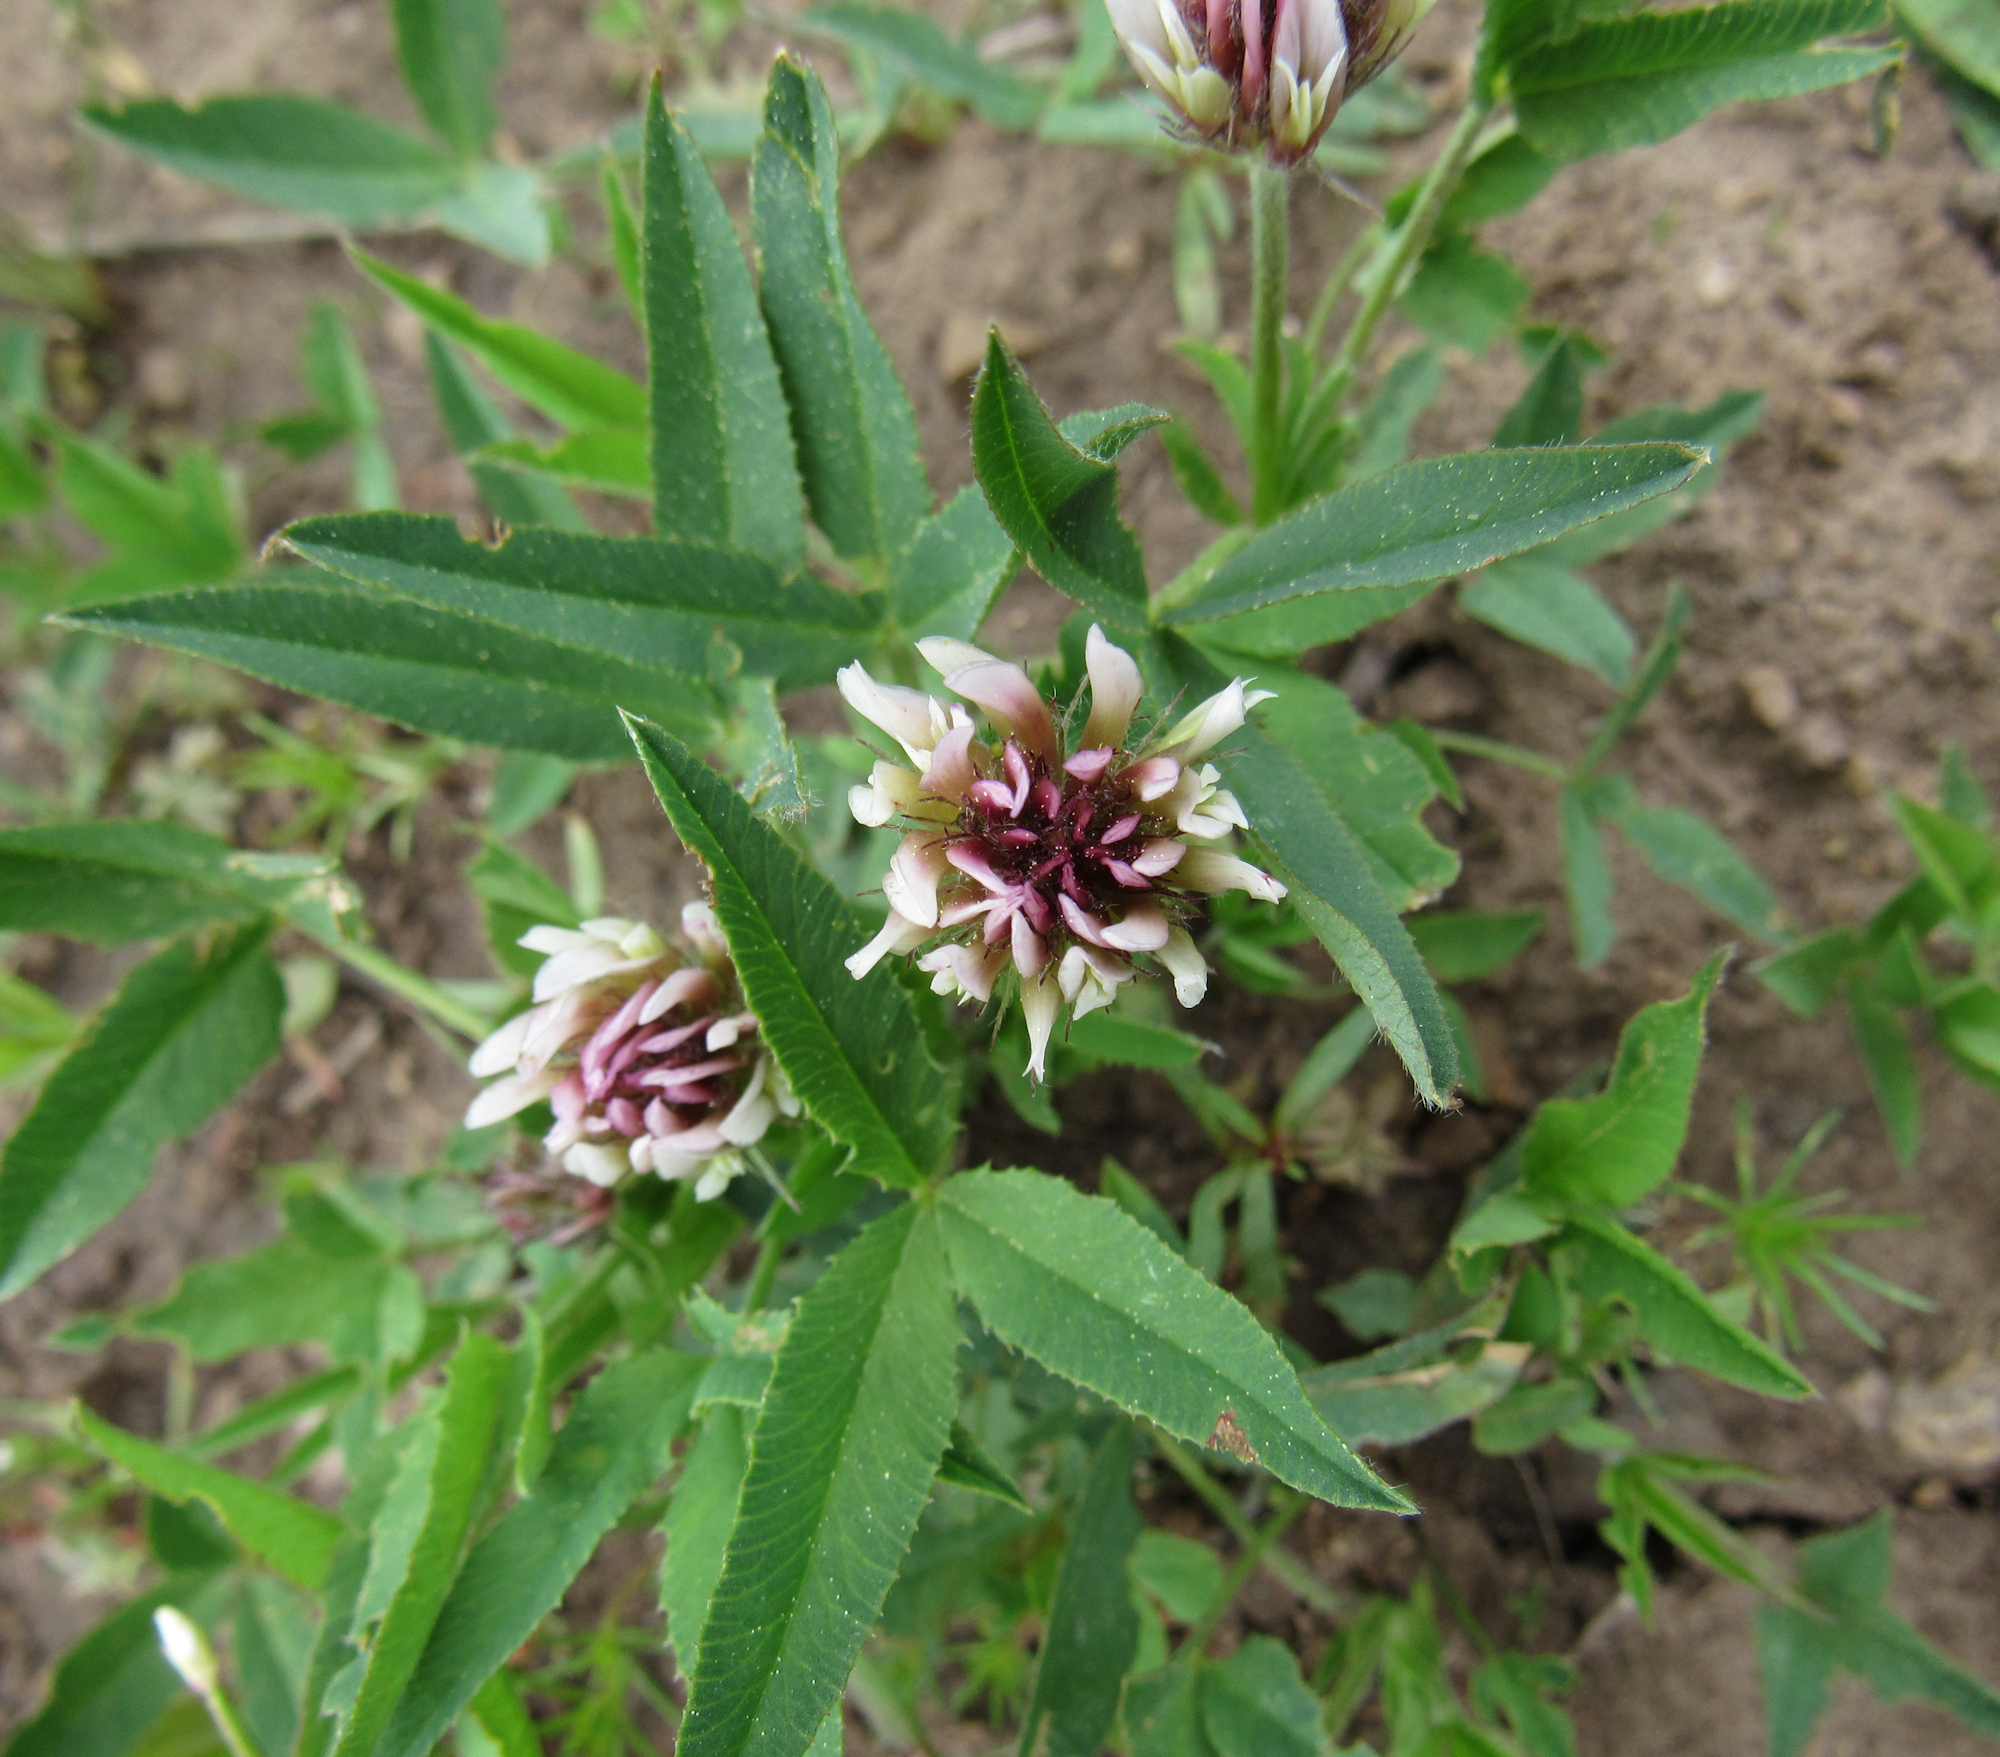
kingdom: Plantae
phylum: Tracheophyta
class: Magnoliopsida
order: Fabales
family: Fabaceae
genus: Trifolium
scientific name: Trifolium longipes
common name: Long-stalk clover
